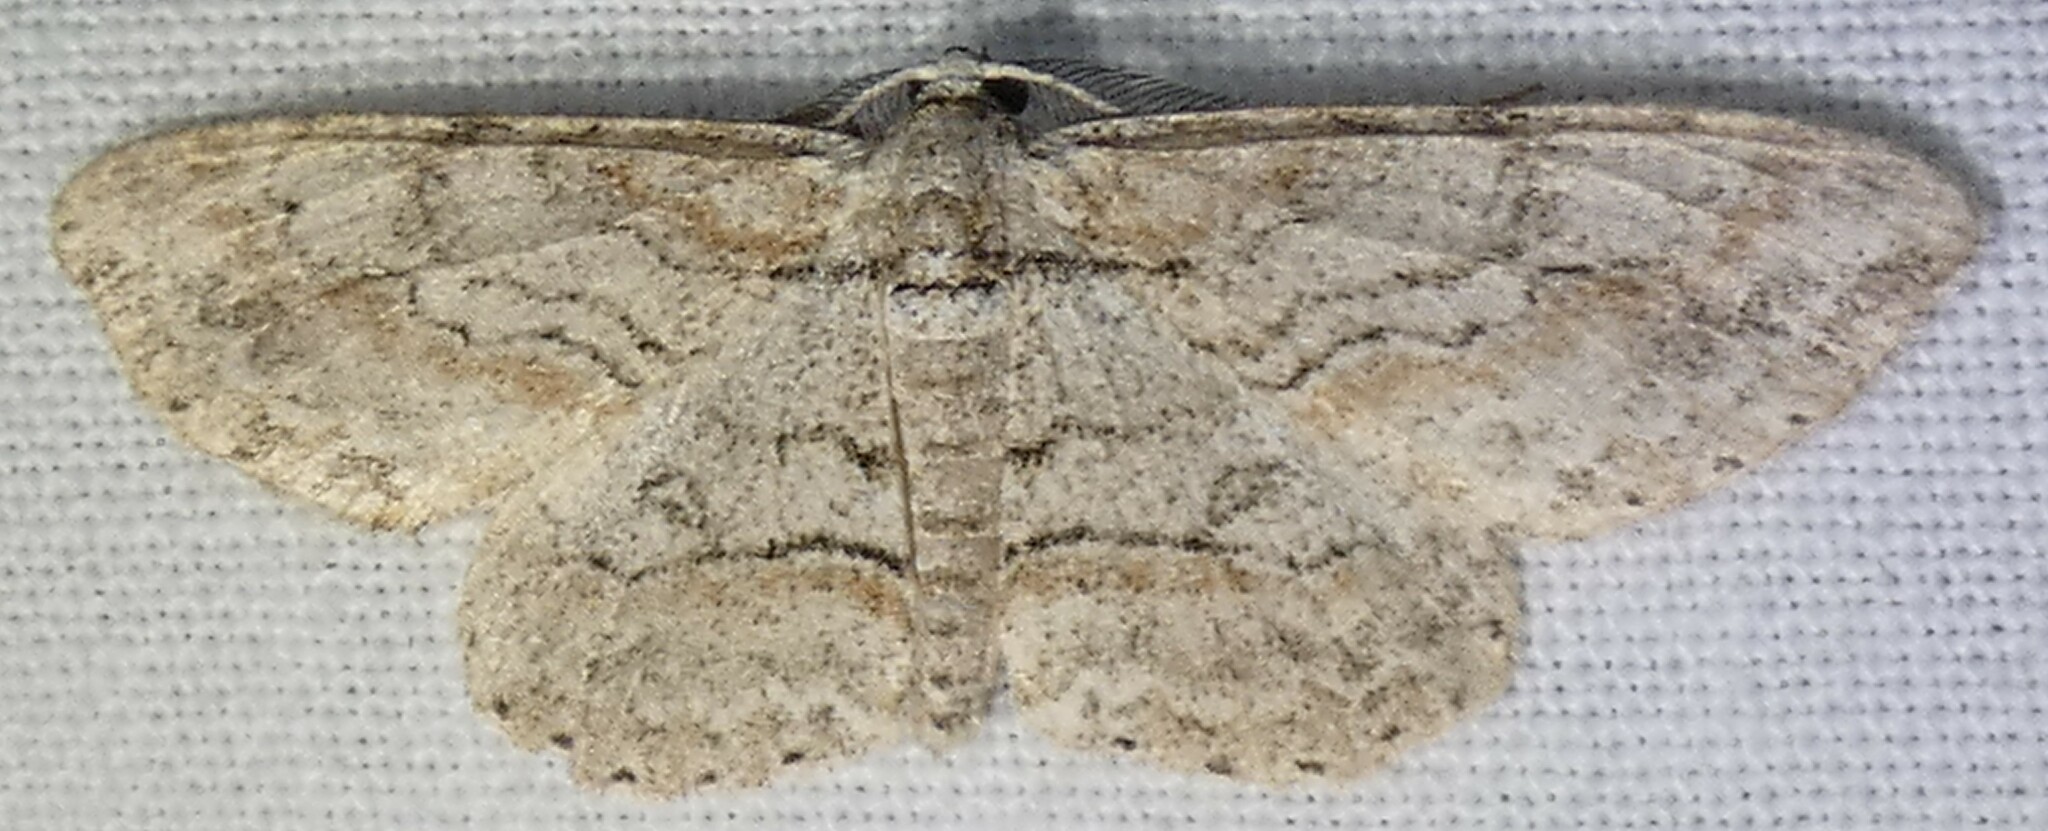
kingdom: Animalia
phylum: Arthropoda
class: Insecta
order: Lepidoptera
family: Geometridae
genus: Iridopsis
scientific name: Iridopsis defectaria
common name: Brown-shaded gray
